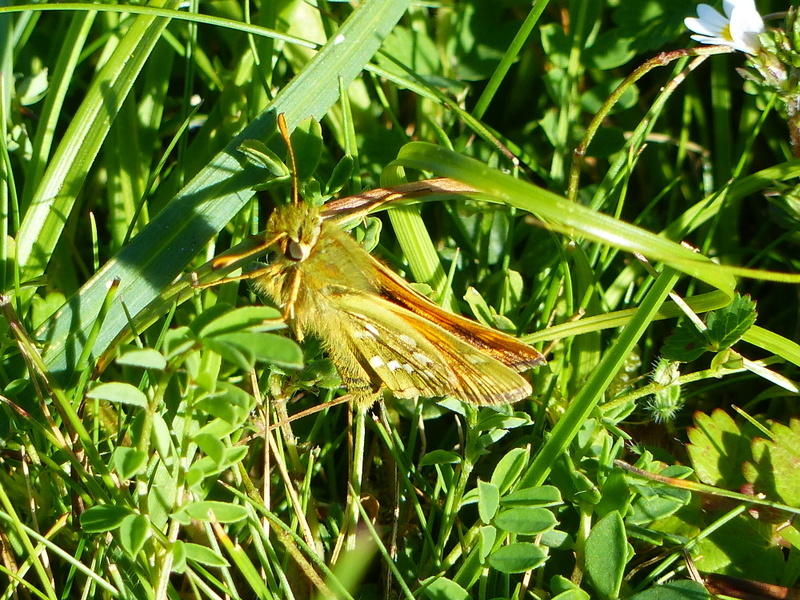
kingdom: Animalia
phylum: Arthropoda
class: Insecta
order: Lepidoptera
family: Hesperiidae
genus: Hesperia
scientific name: Hesperia comma
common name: Common branded skipper
